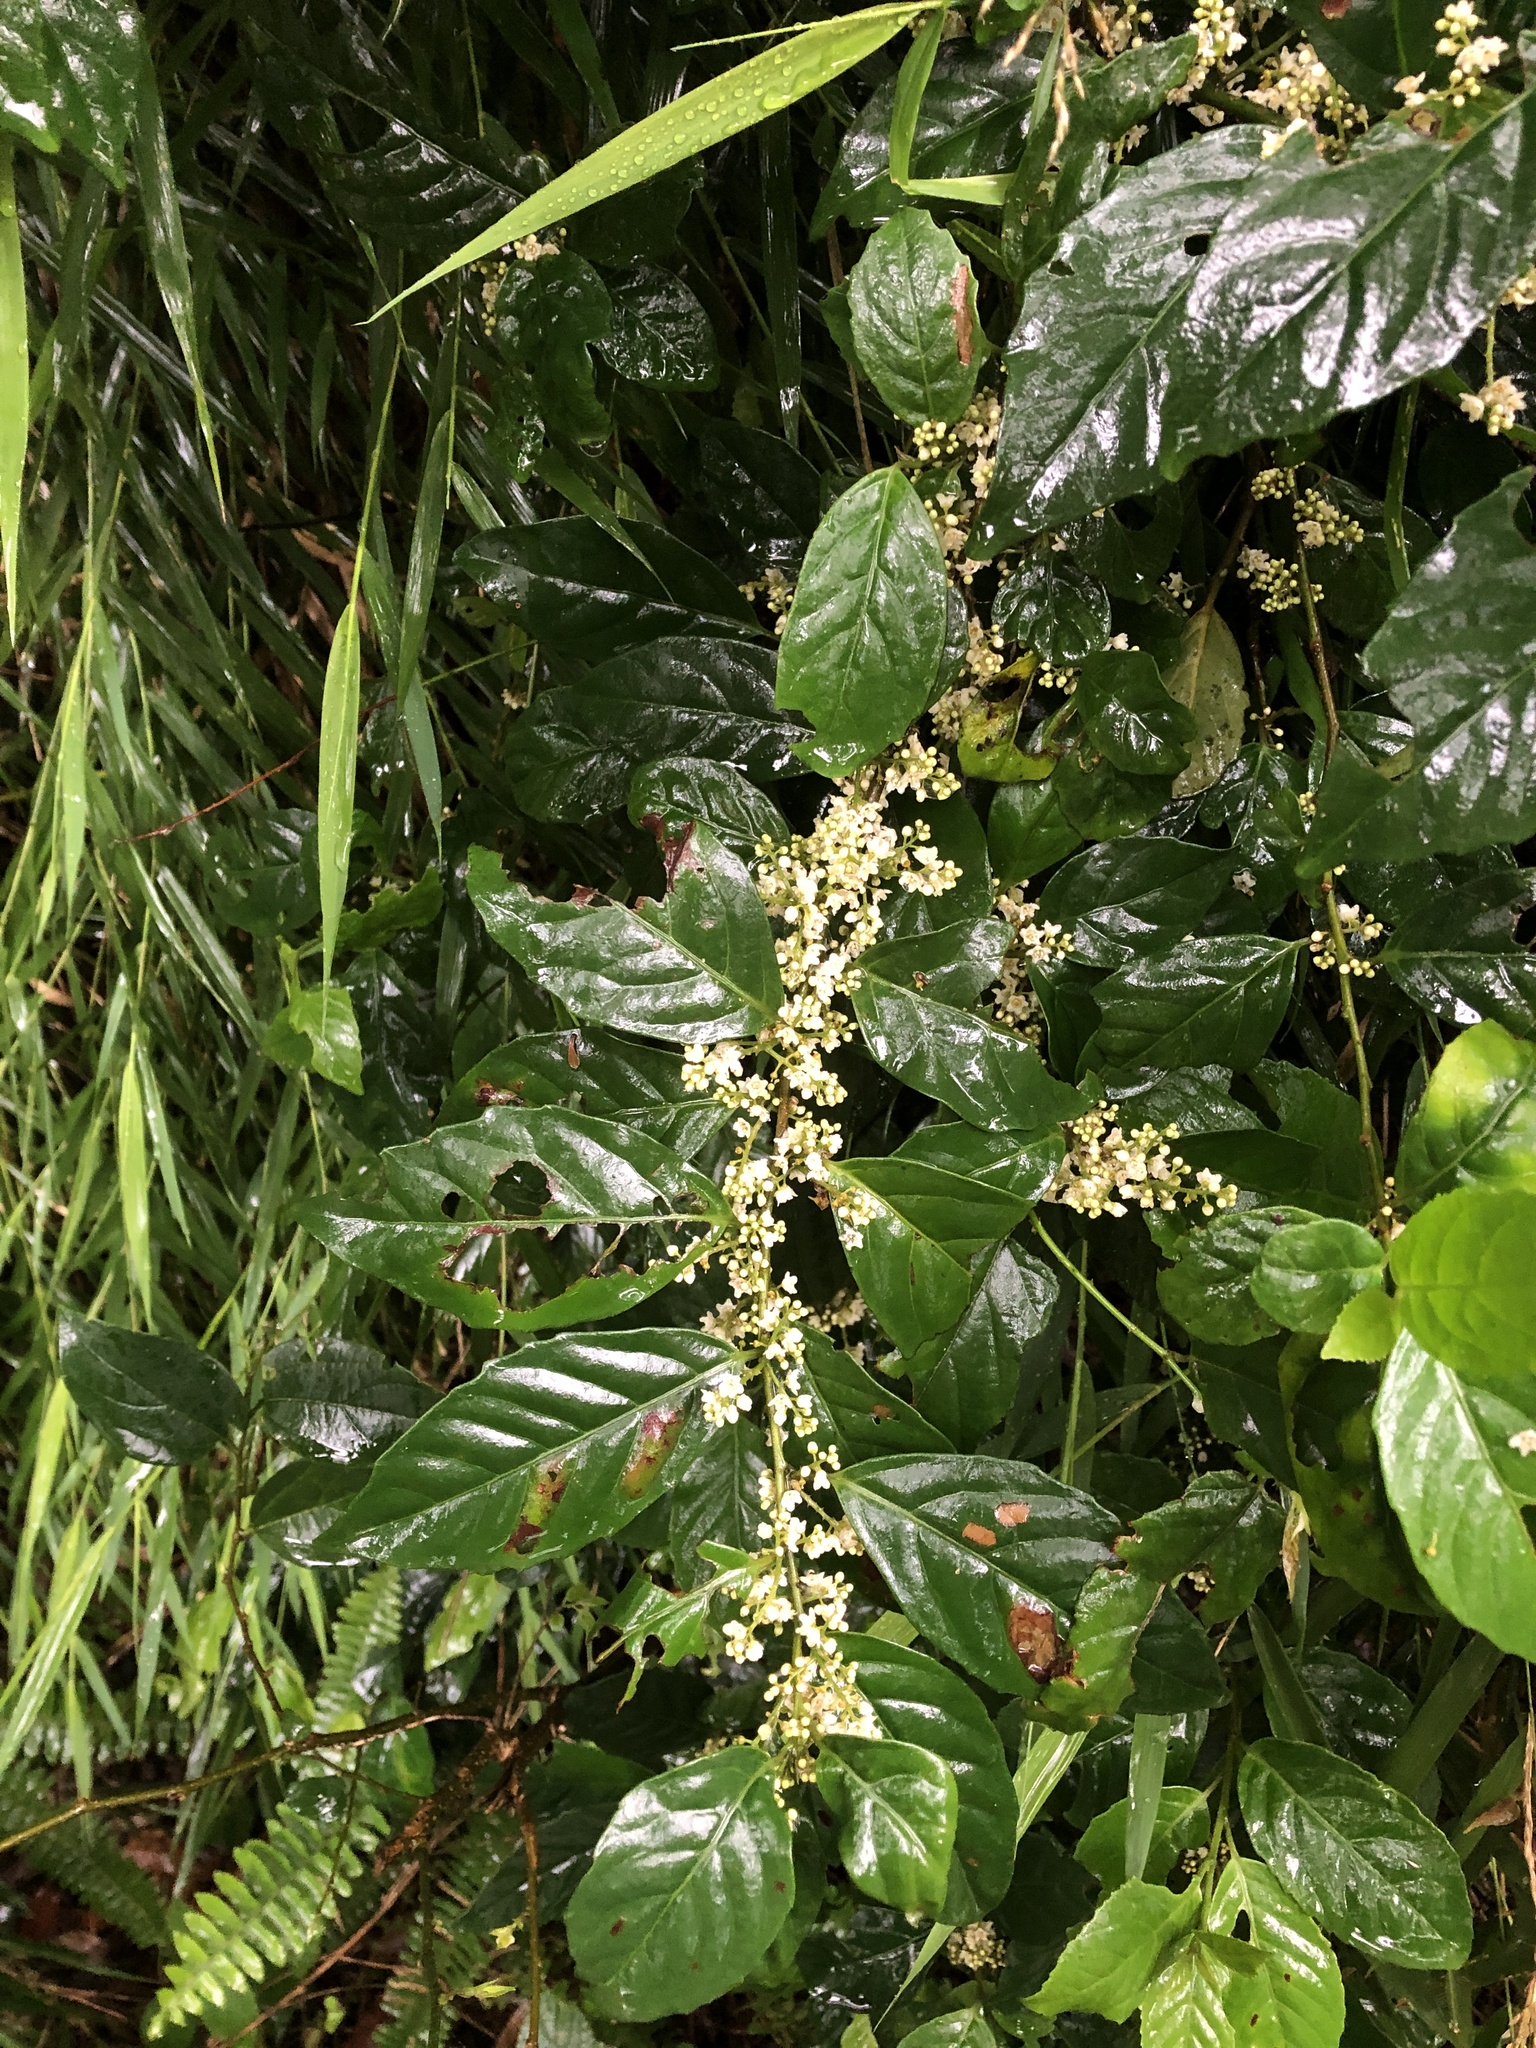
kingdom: Plantae
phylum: Tracheophyta
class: Magnoliopsida
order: Ericales
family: Primulaceae
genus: Maesa
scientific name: Maesa perlaria
